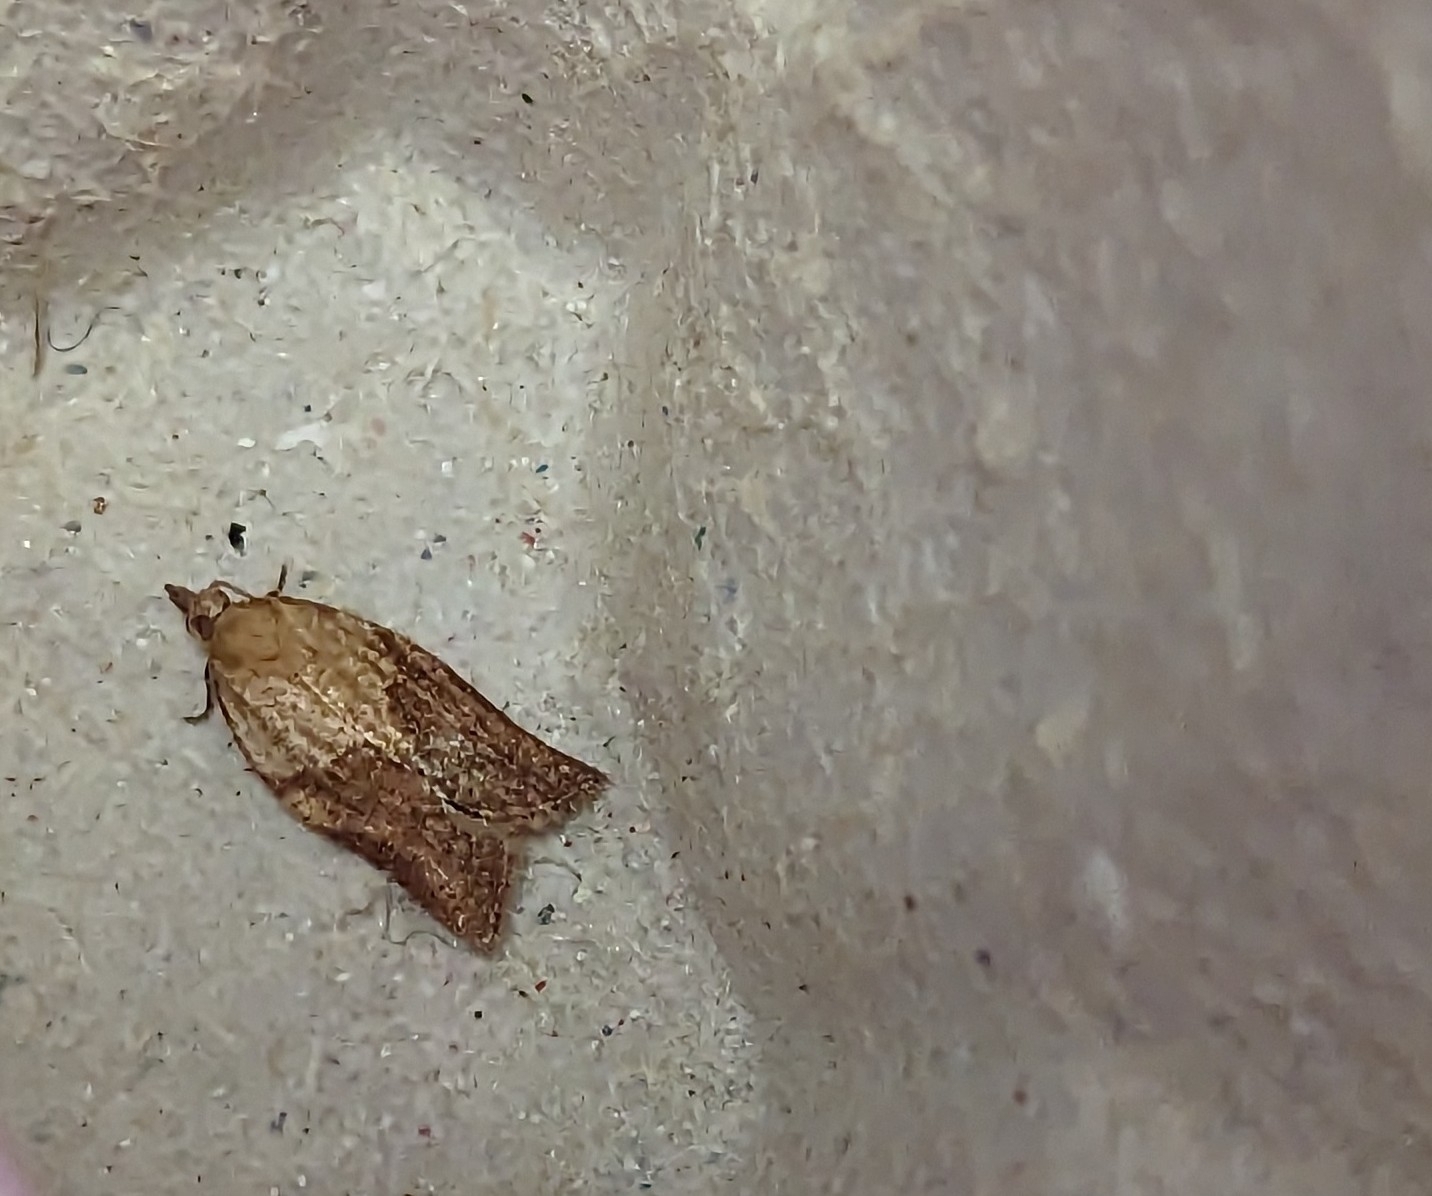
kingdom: Animalia
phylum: Arthropoda
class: Insecta
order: Lepidoptera
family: Tortricidae
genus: Epiphyas
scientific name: Epiphyas postvittana
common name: Light brown apple moth
